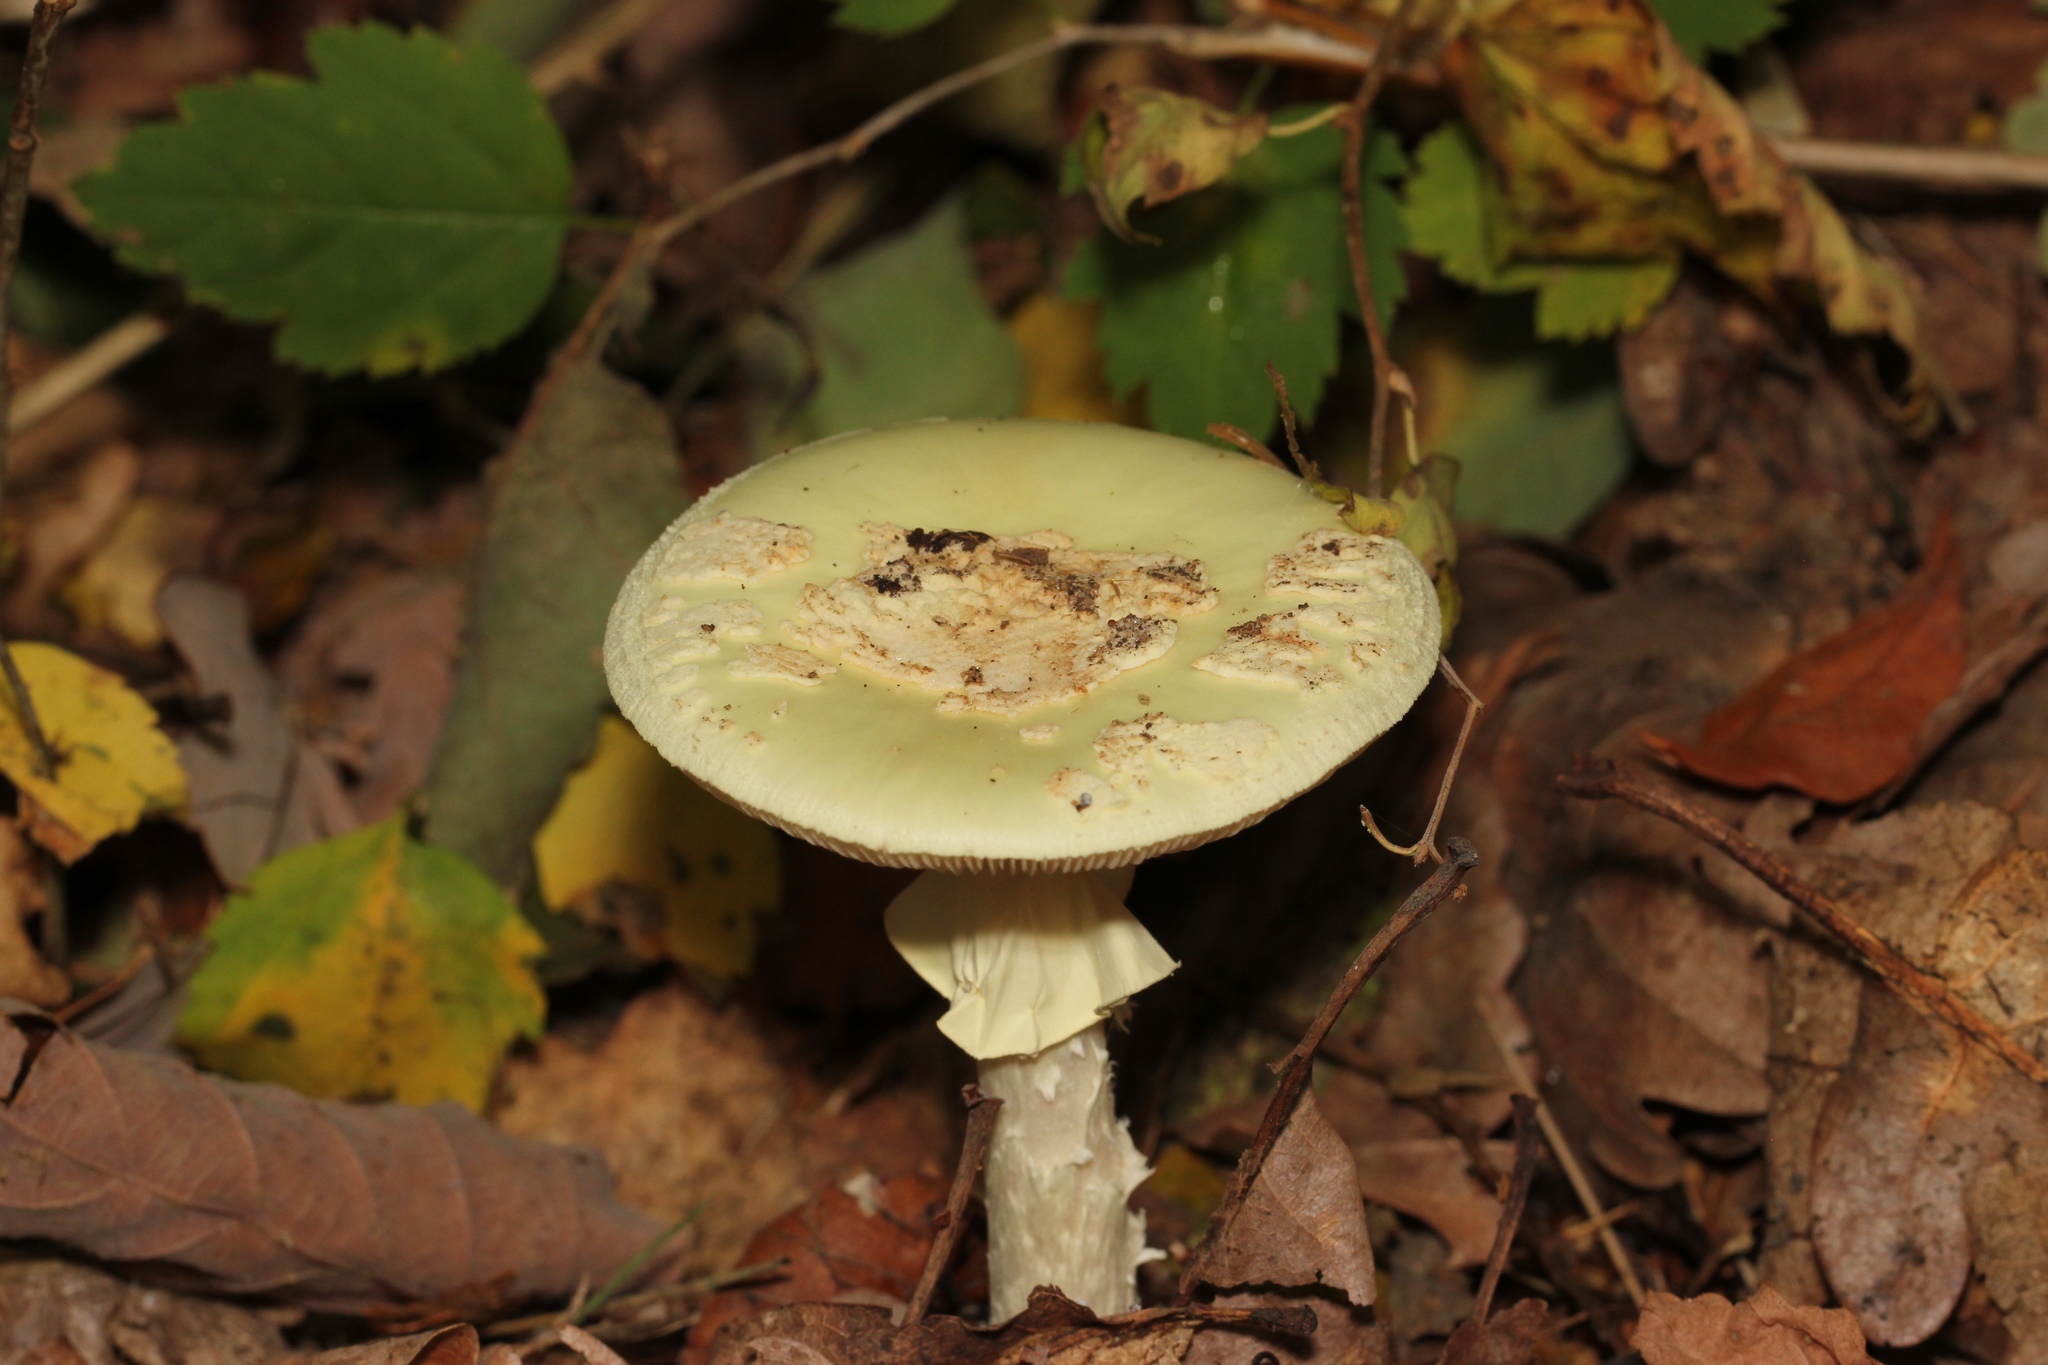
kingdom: Fungi
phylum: Basidiomycota
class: Agaricomycetes
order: Agaricales
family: Amanitaceae
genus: Amanita
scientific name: Amanita citrina
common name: False death-cap
